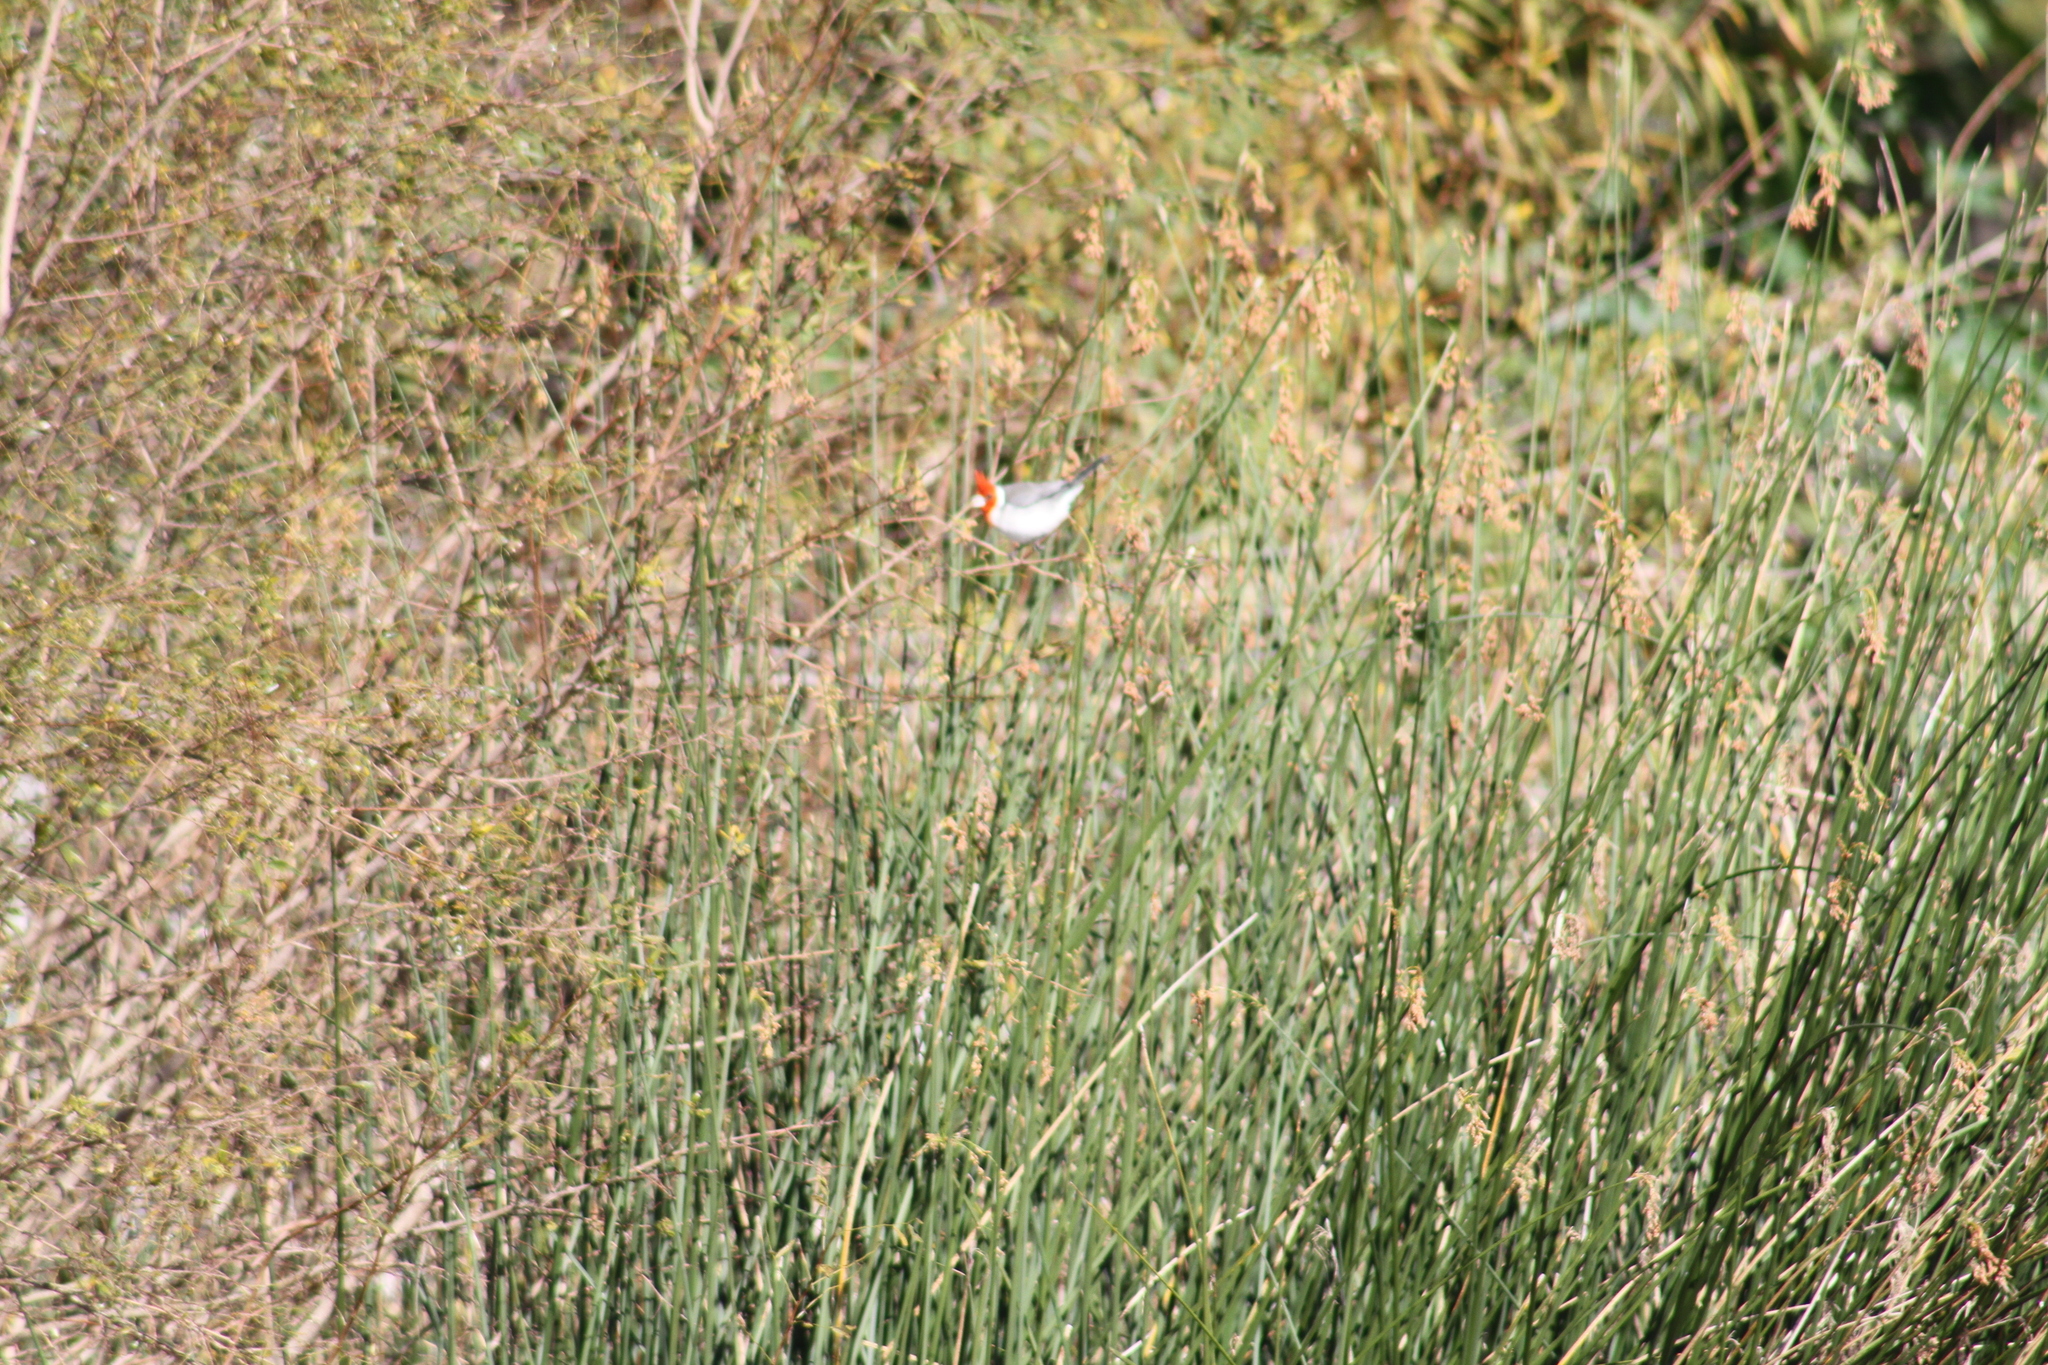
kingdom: Animalia
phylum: Chordata
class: Aves
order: Passeriformes
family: Thraupidae
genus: Paroaria
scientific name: Paroaria coronata
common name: Red-crested cardinal
